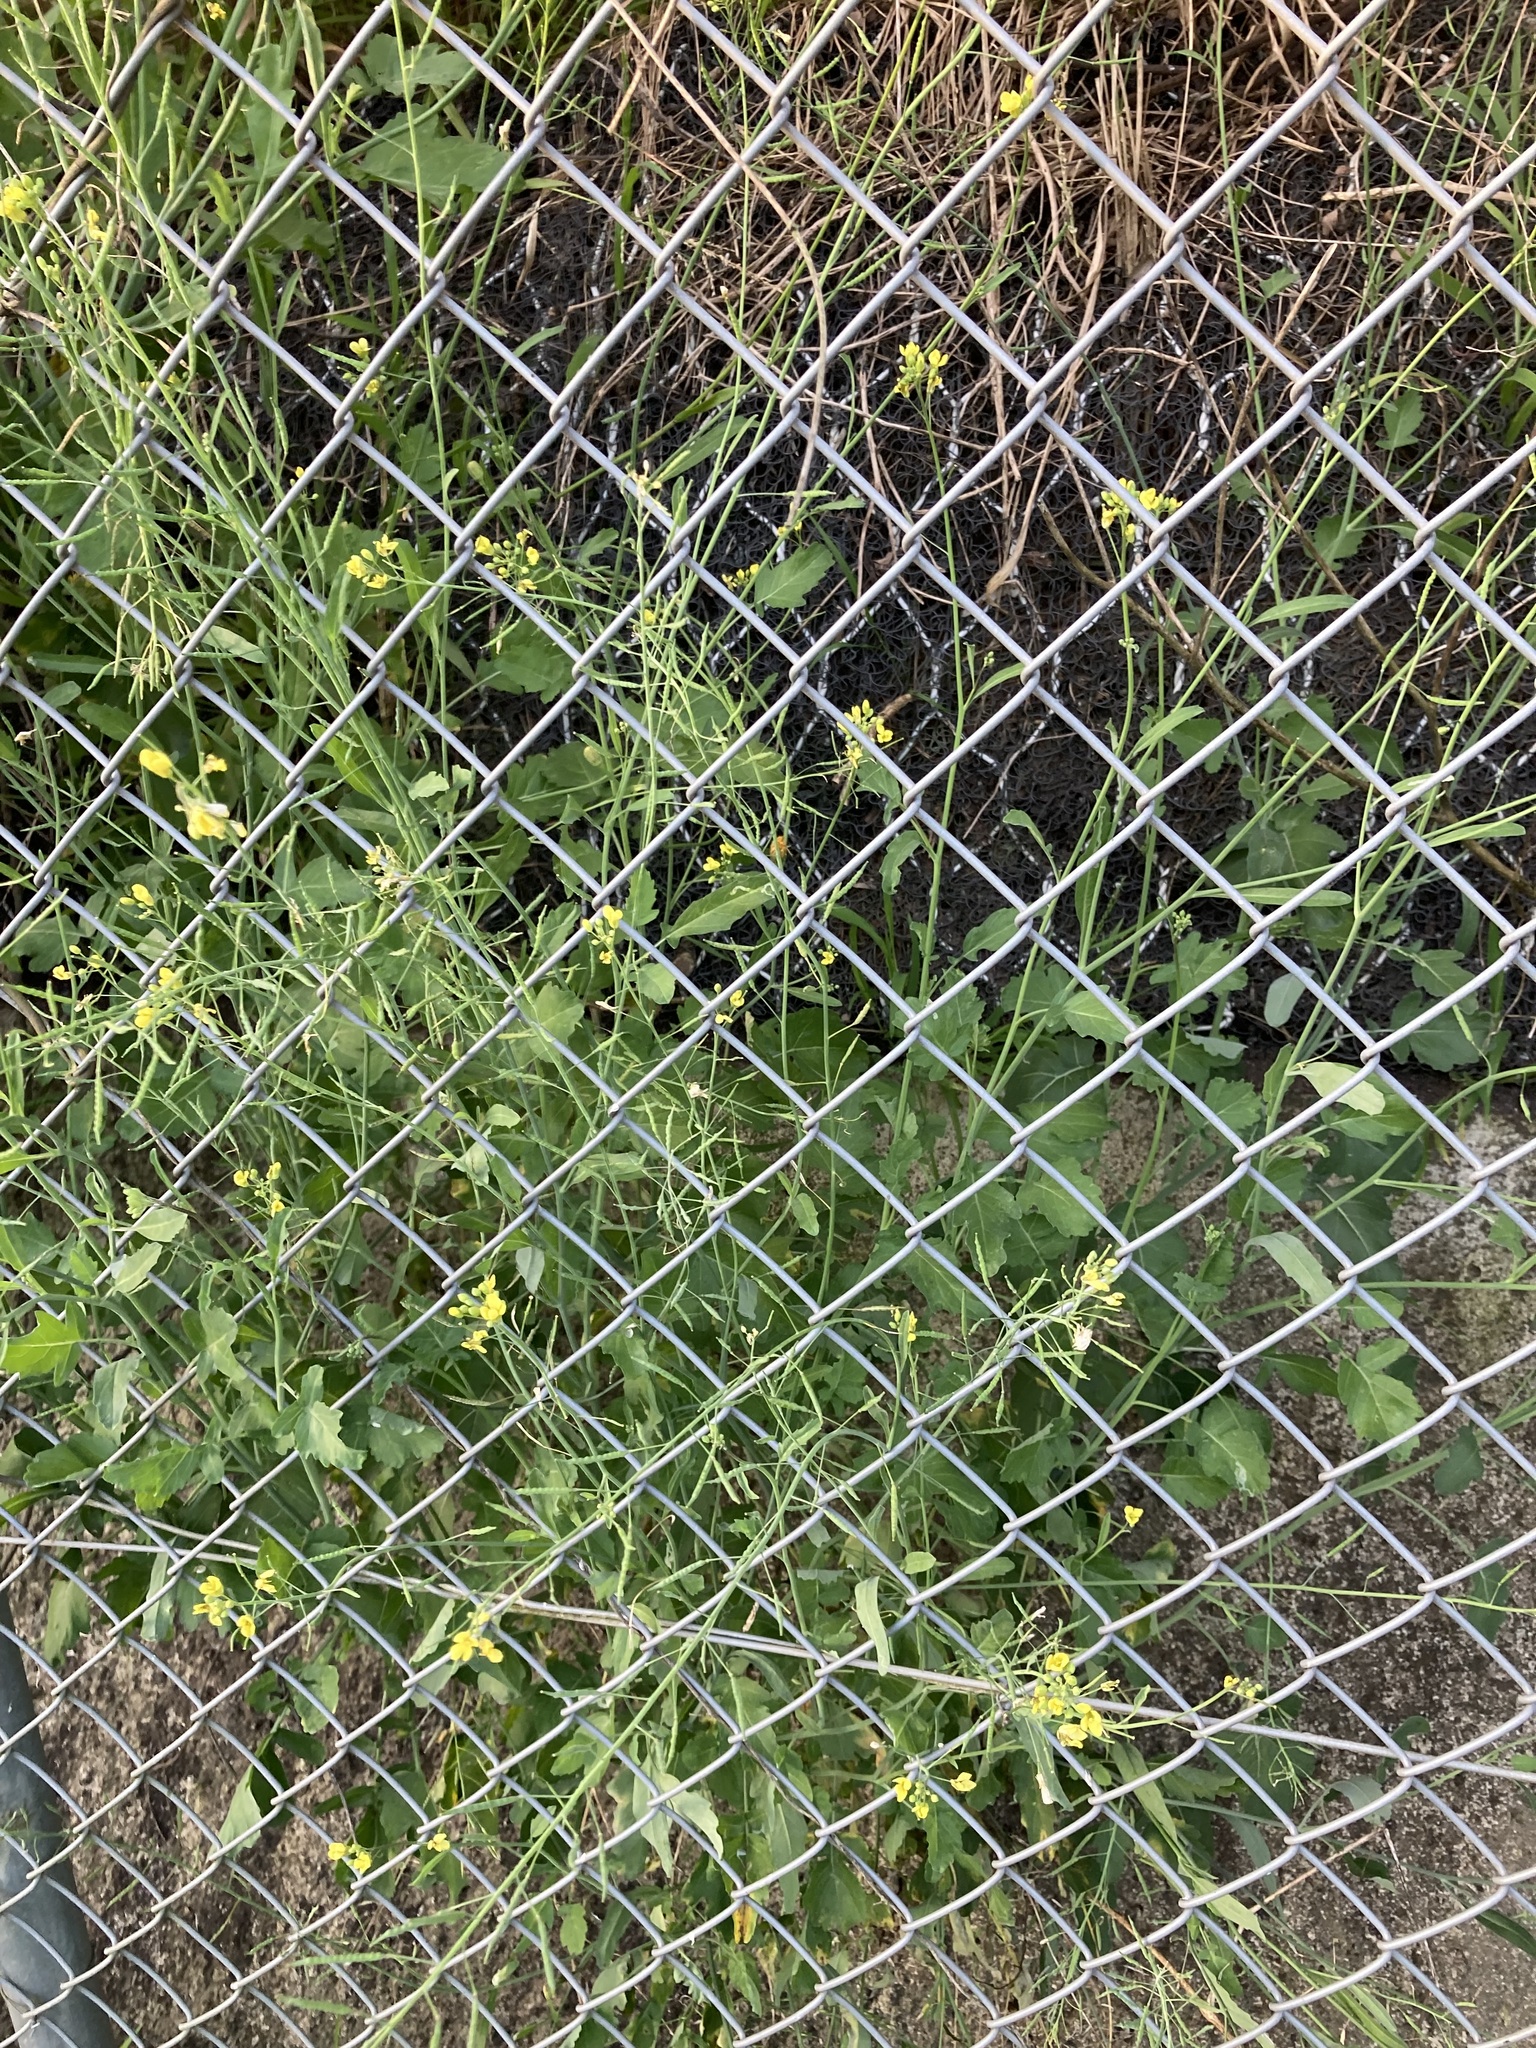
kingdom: Plantae
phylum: Tracheophyta
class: Magnoliopsida
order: Brassicales
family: Brassicaceae
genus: Brassica
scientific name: Brassica fruticulosa
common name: Twiggy turnip
